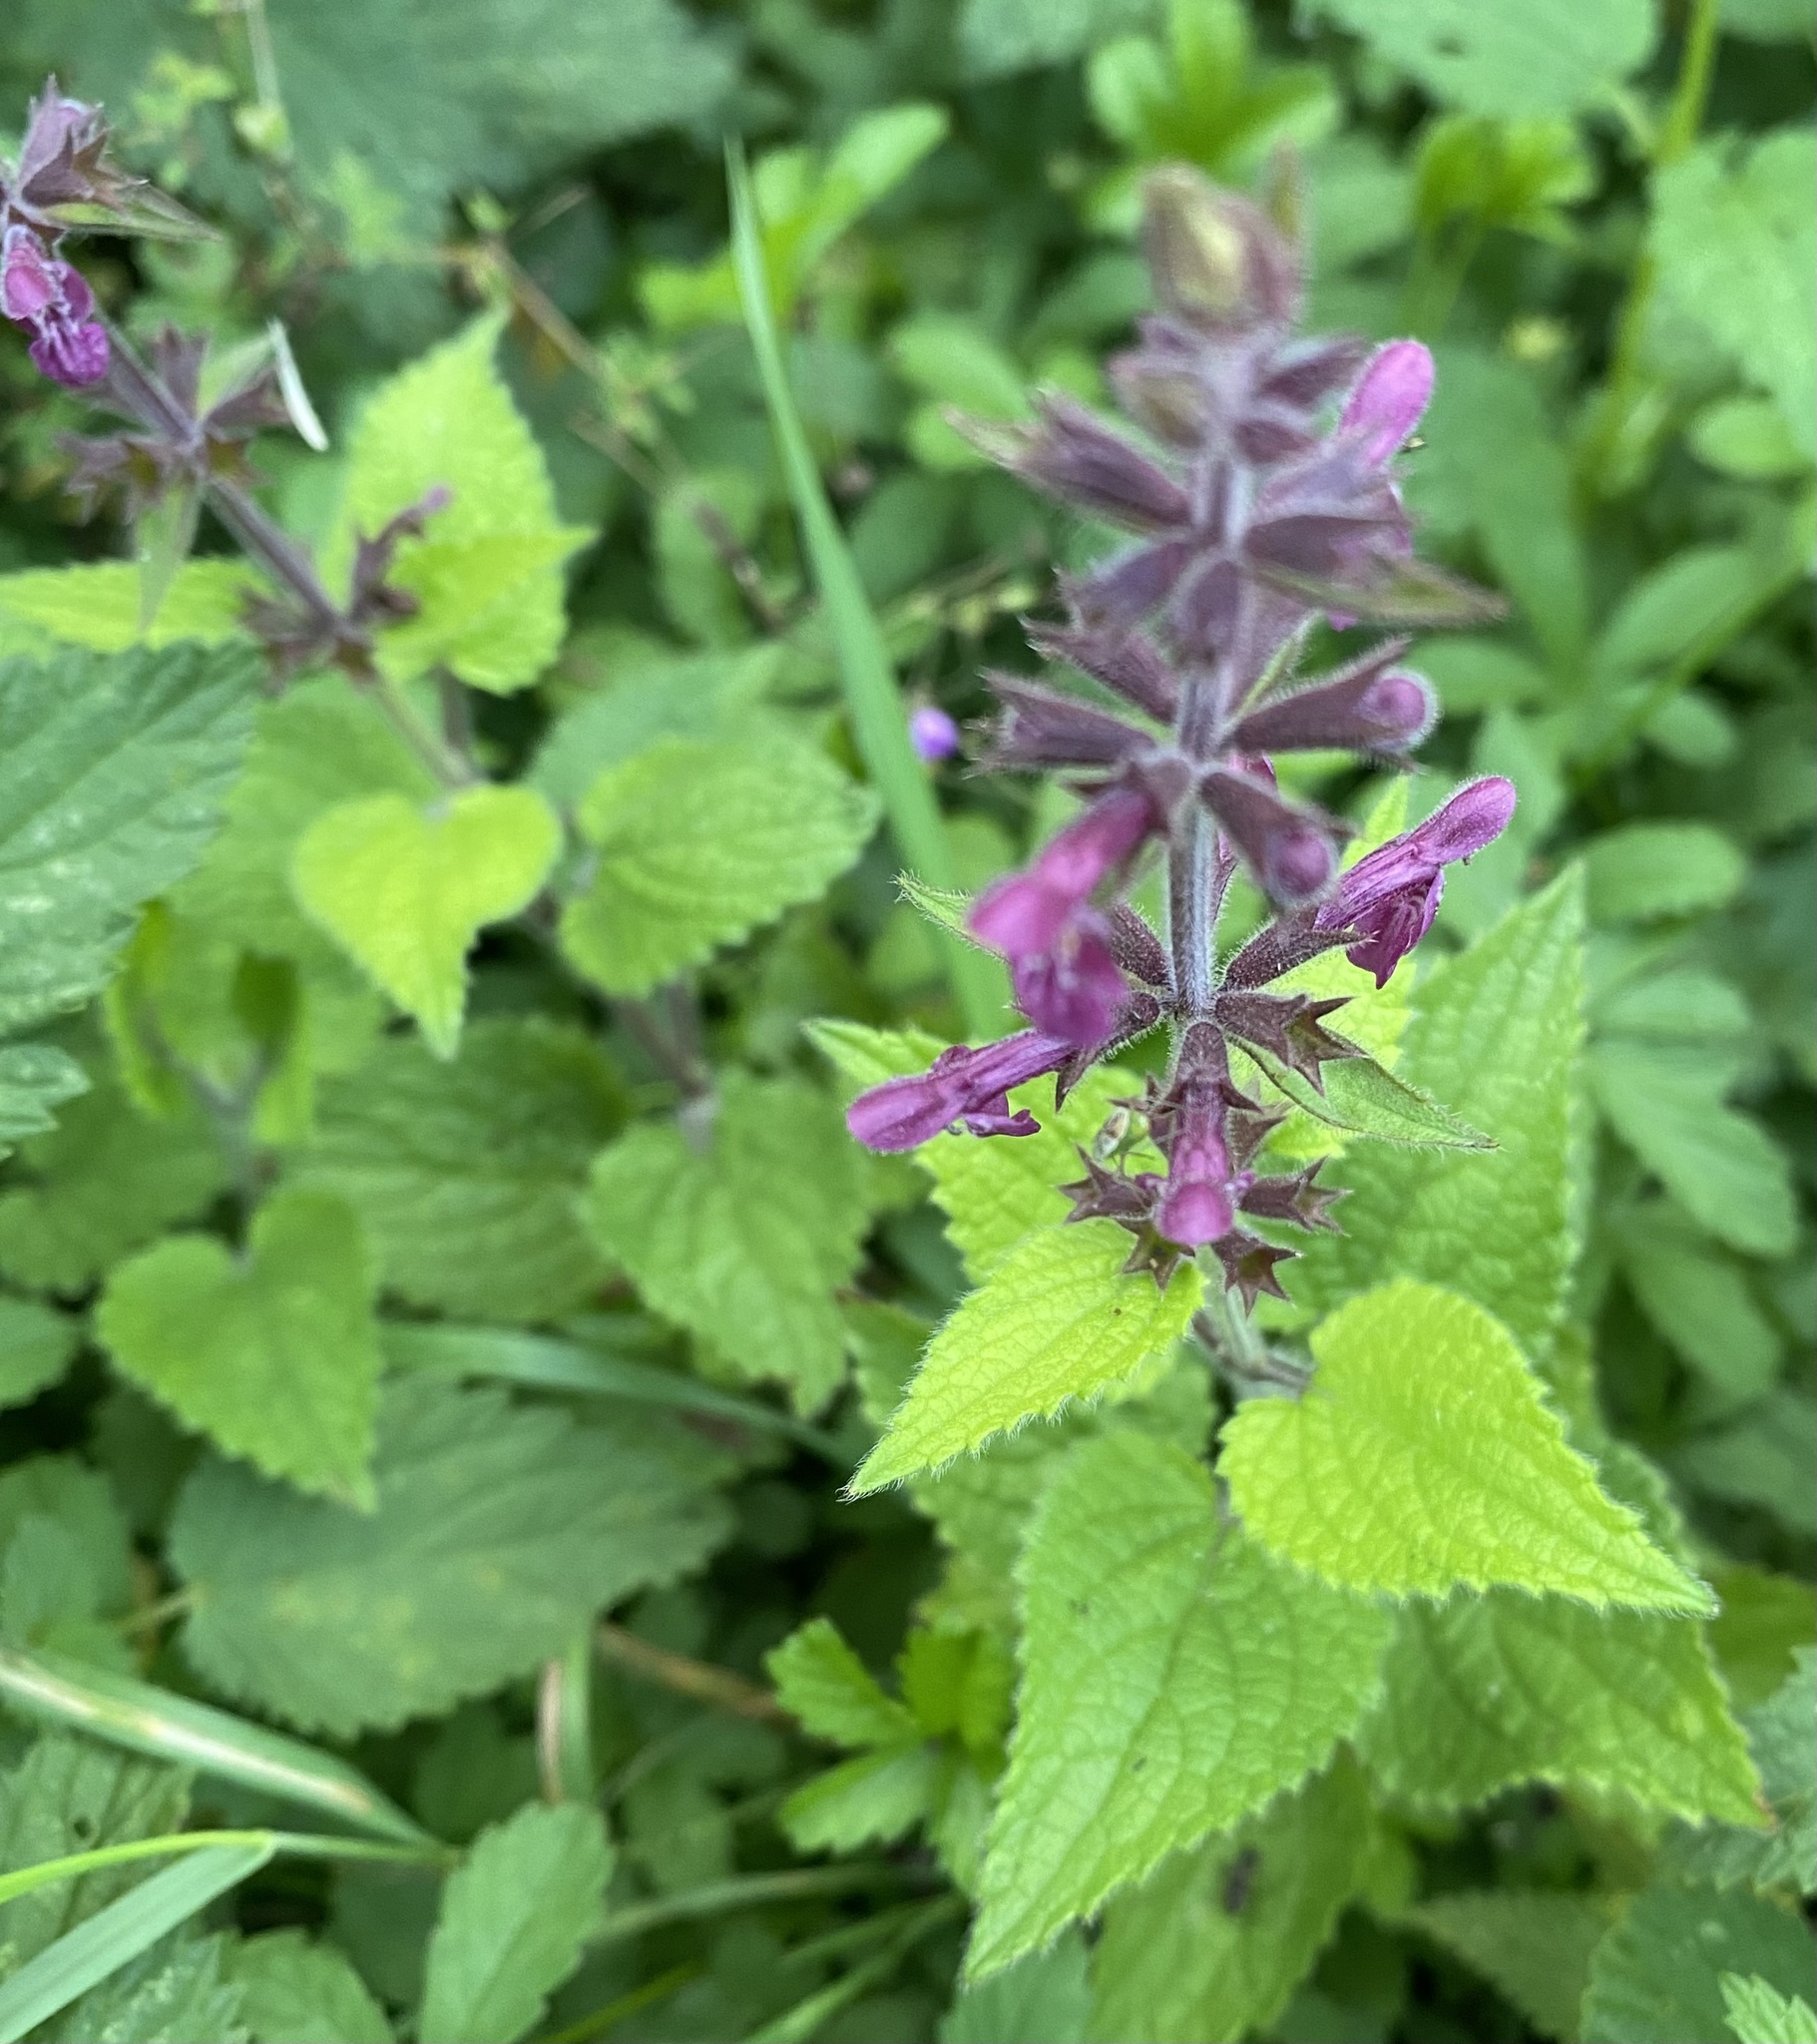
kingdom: Plantae
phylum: Tracheophyta
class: Magnoliopsida
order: Lamiales
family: Lamiaceae
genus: Stachys
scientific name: Stachys sylvatica
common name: Hedge woundwort
